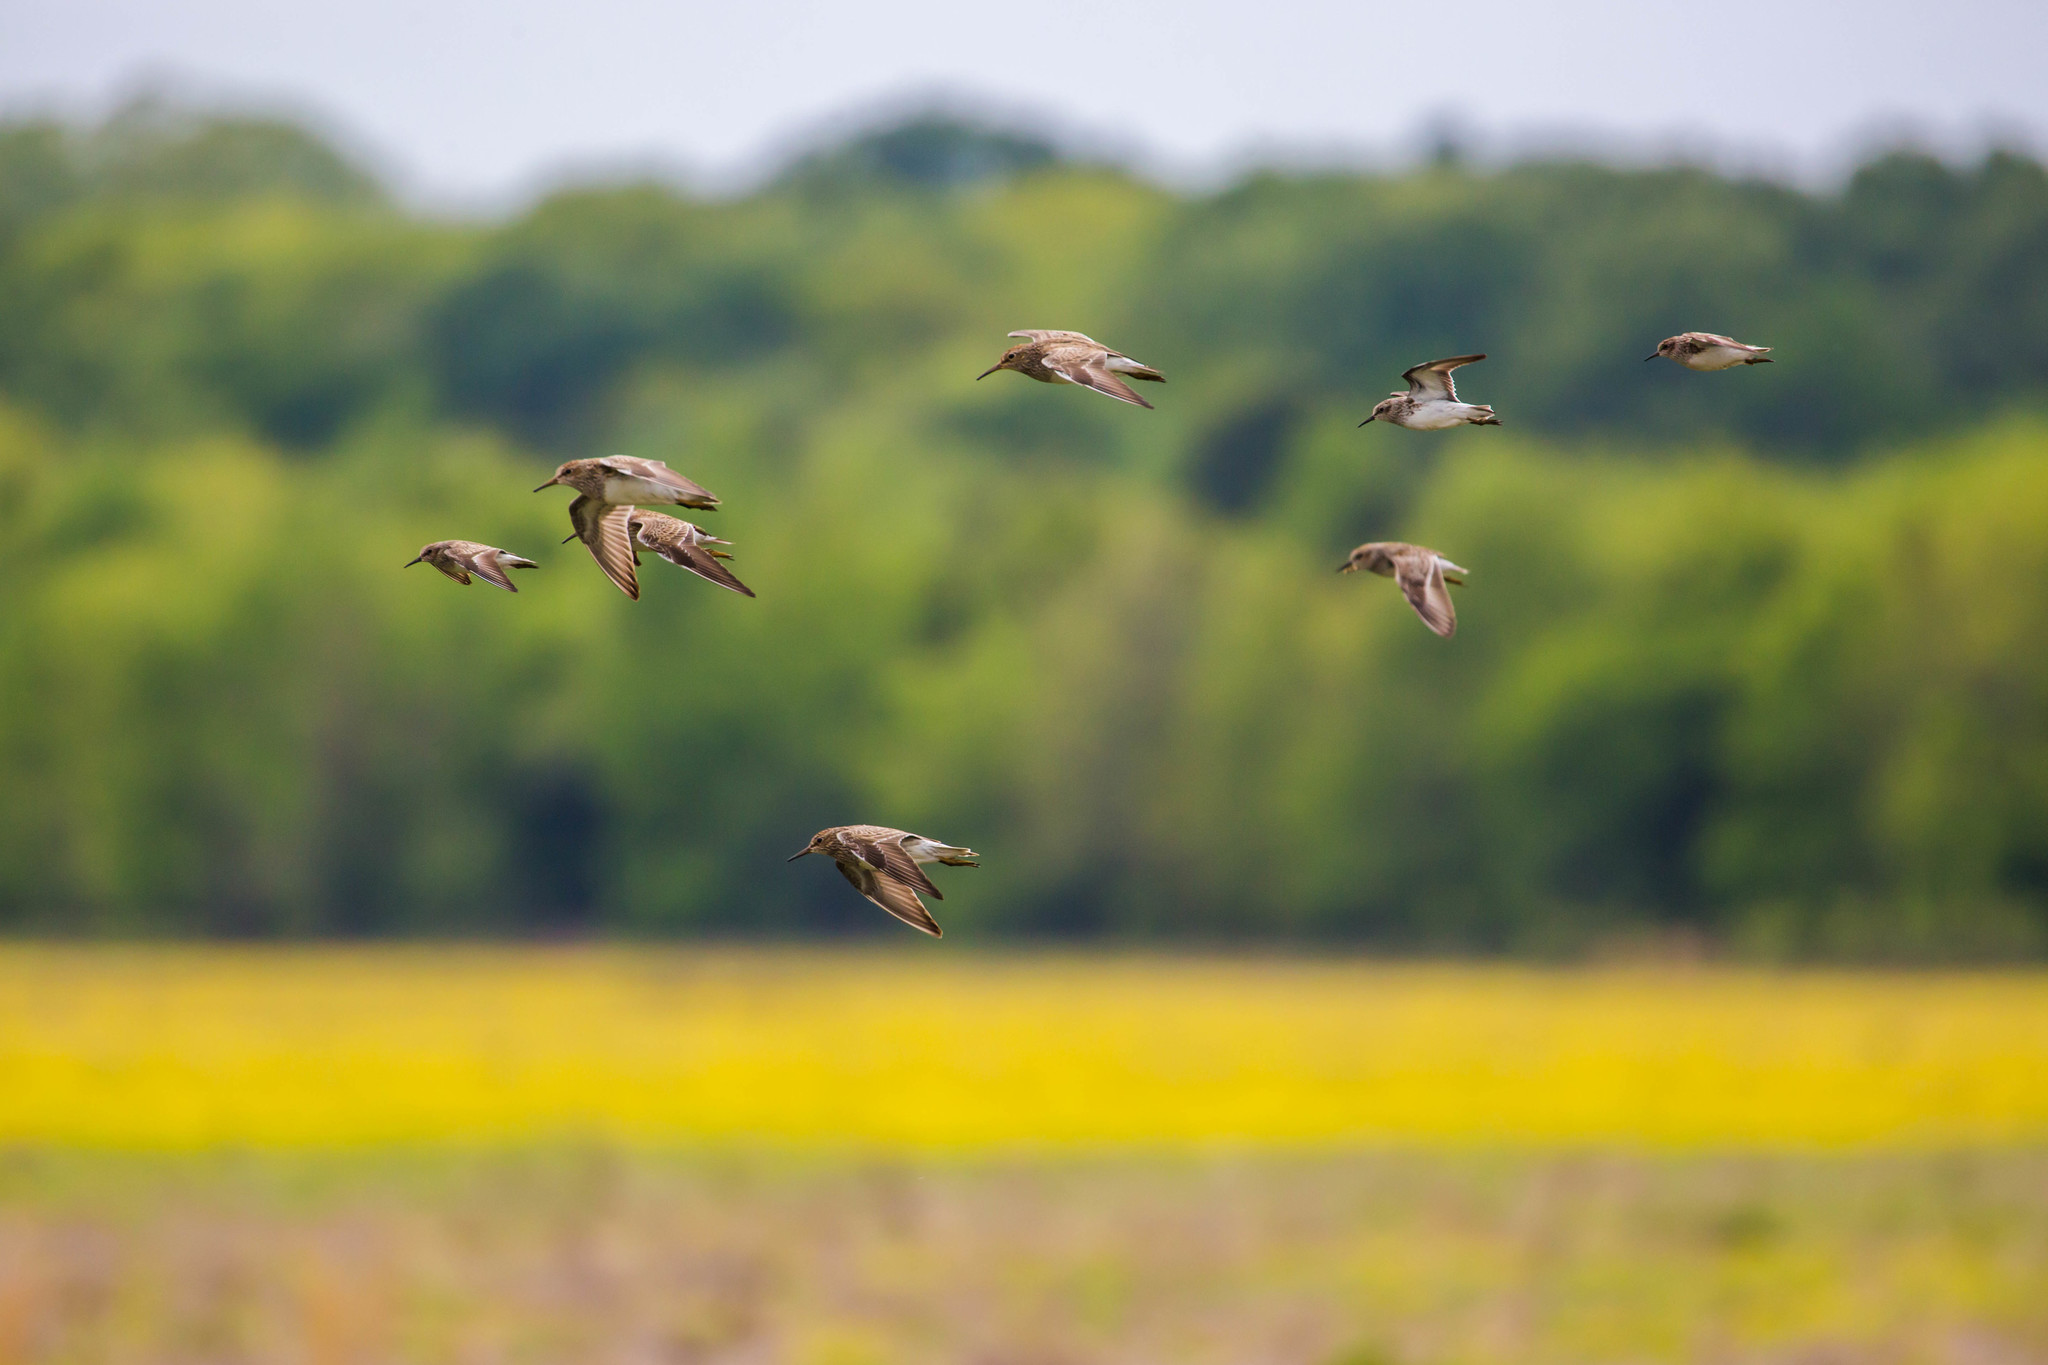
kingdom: Animalia
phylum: Chordata
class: Aves
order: Charadriiformes
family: Scolopacidae
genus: Calidris
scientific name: Calidris minutilla
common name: Least sandpiper
